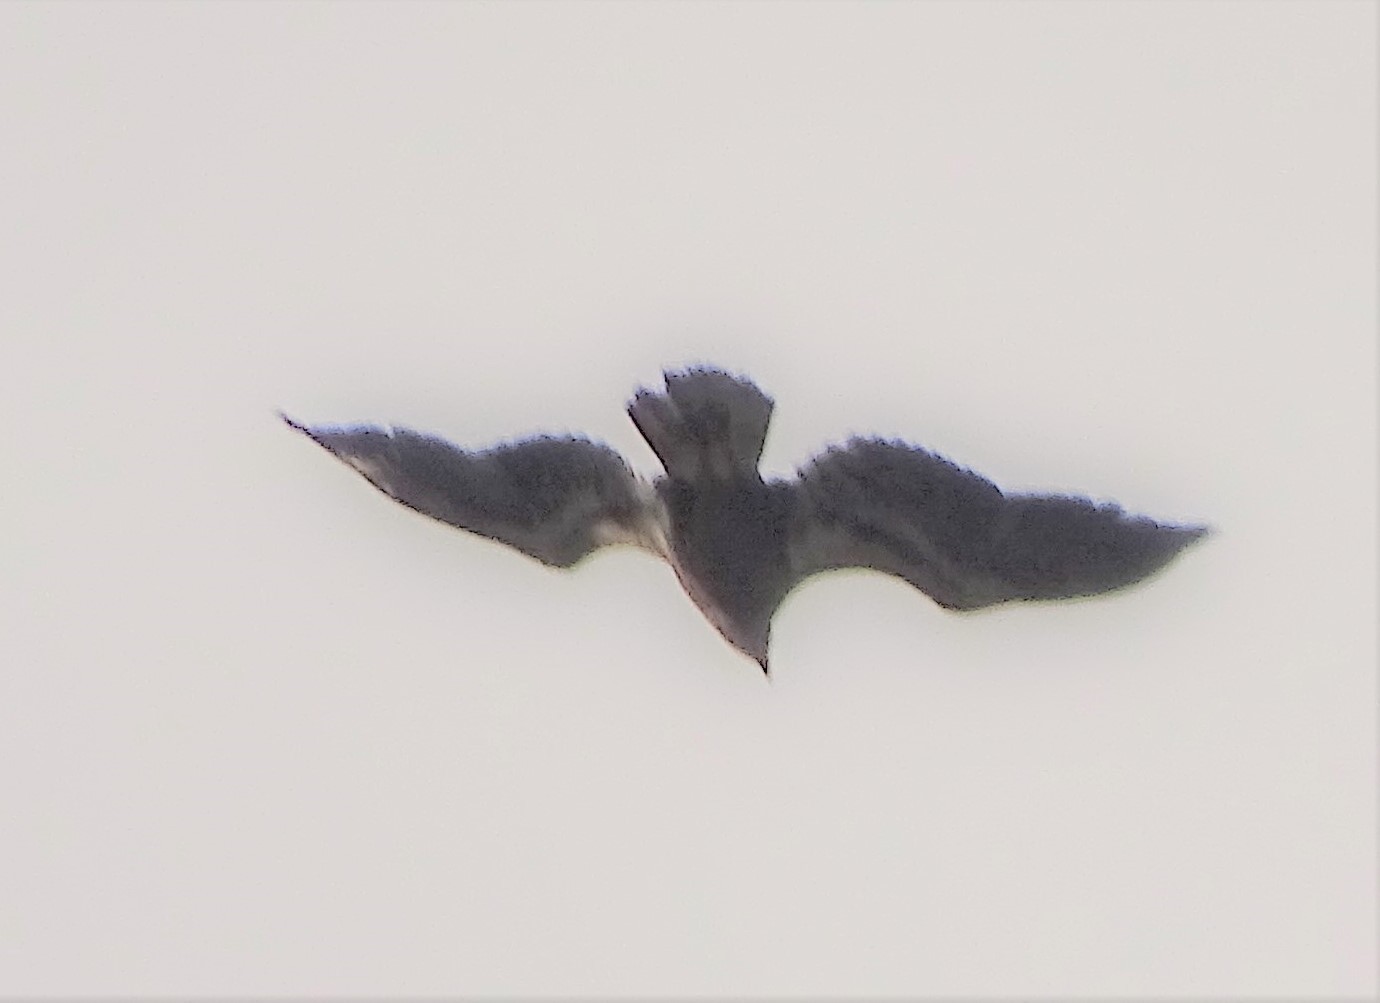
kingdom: Animalia
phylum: Chordata
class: Aves
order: Accipitriformes
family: Accipitridae
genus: Haliaeetus
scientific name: Haliaeetus leucocephalus
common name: Bald eagle
